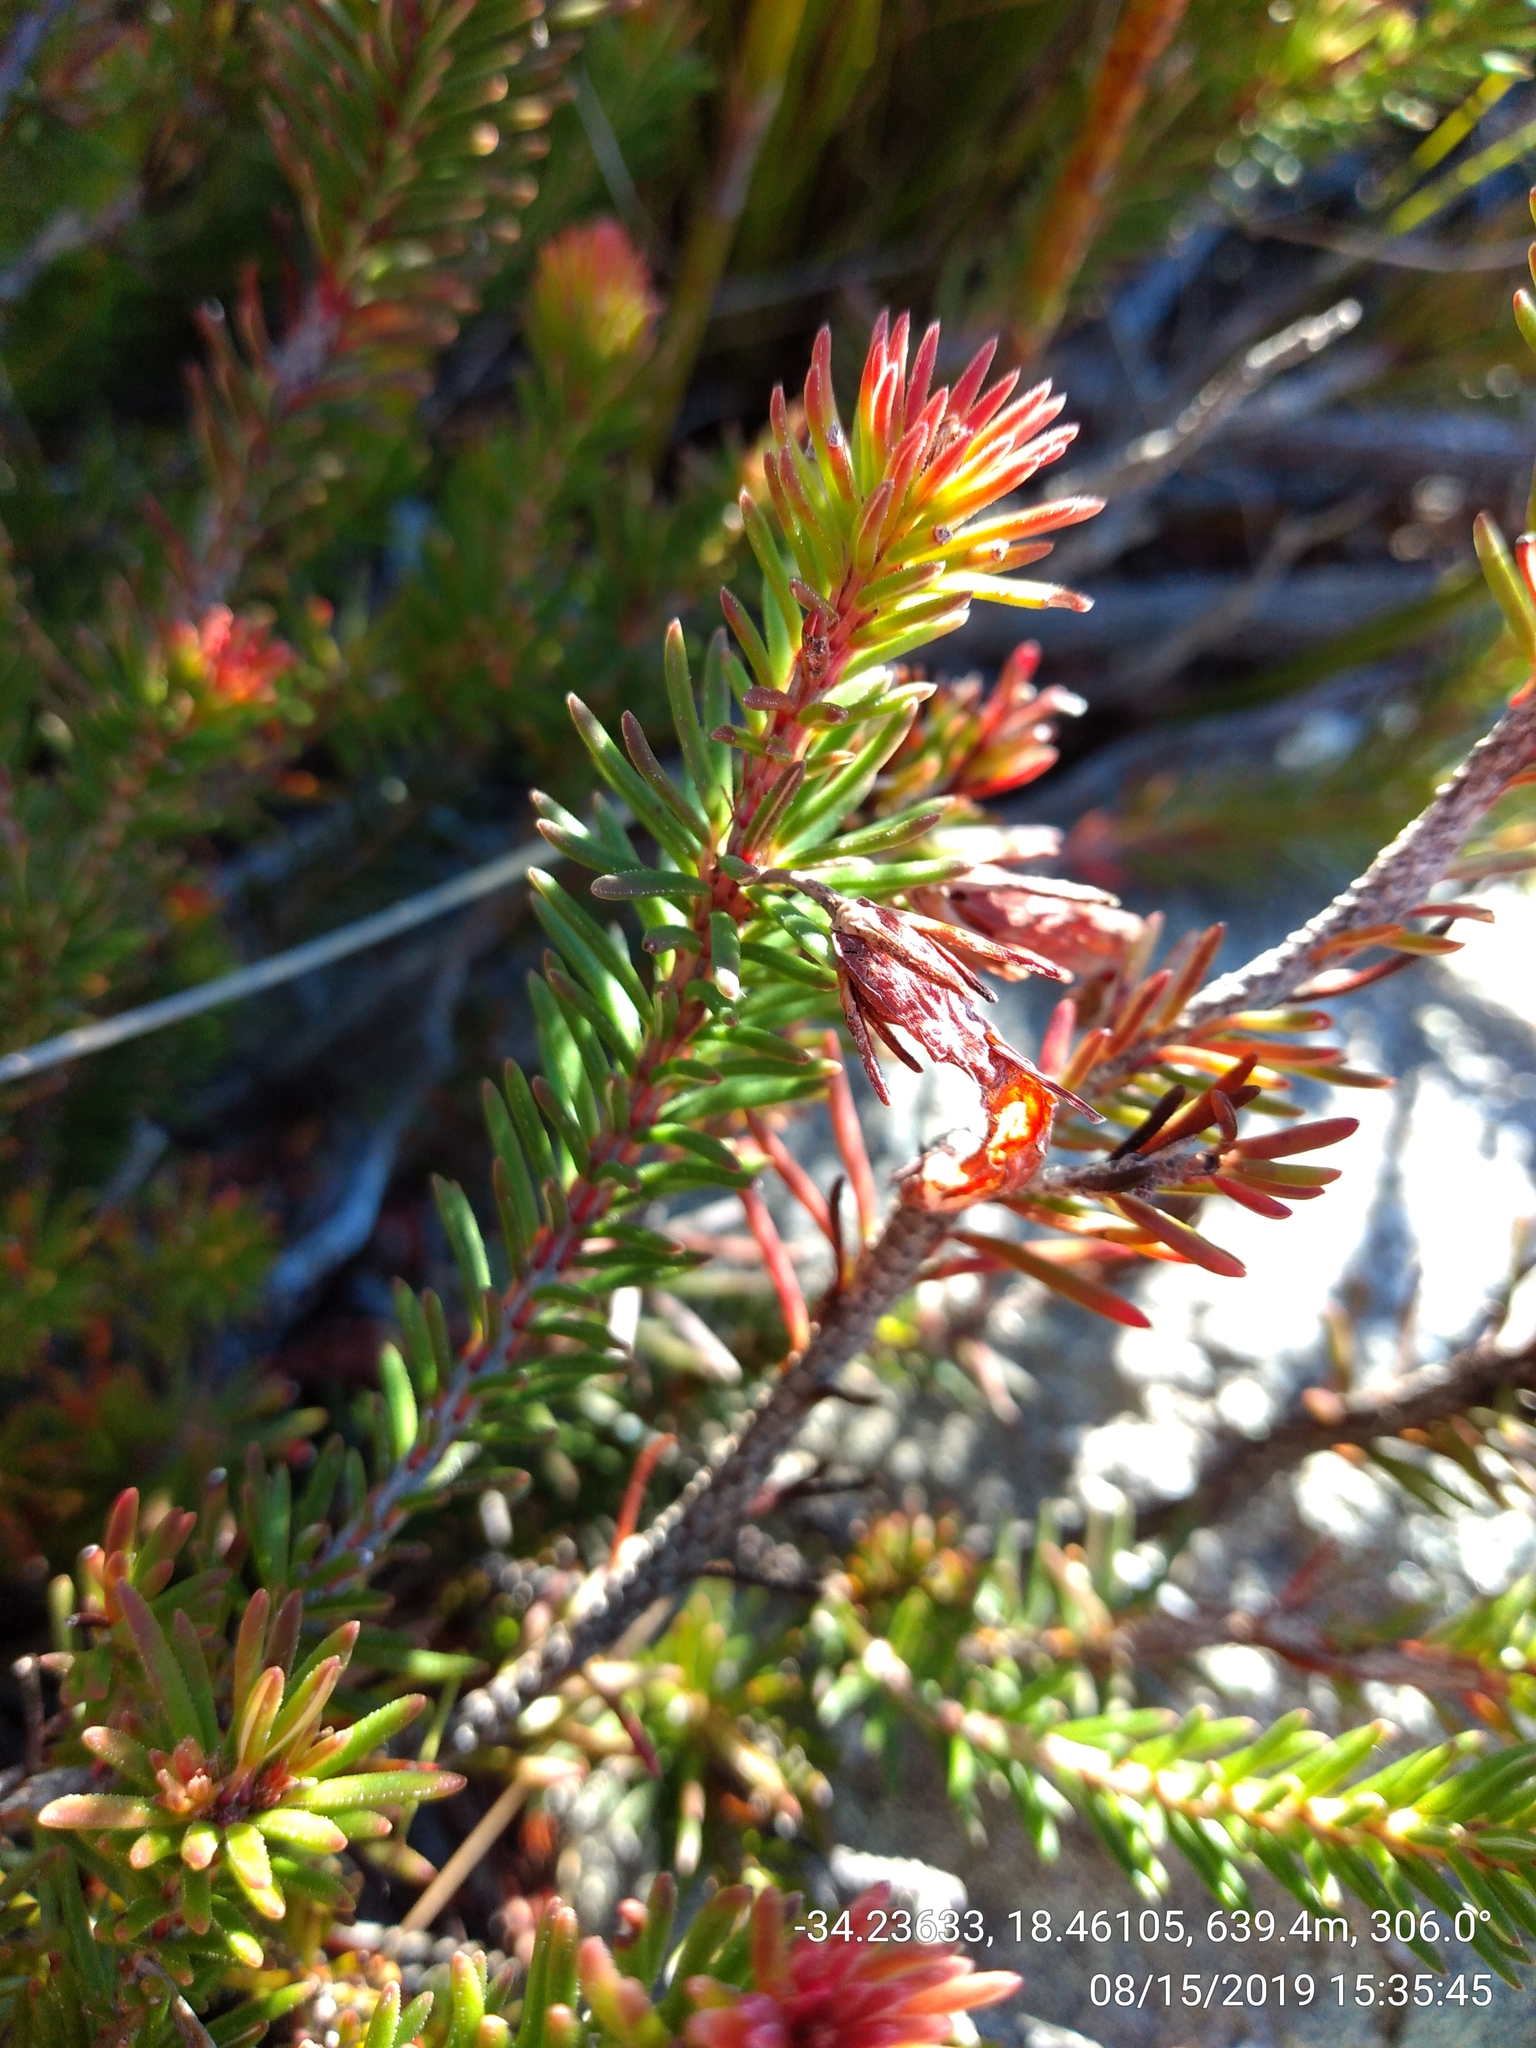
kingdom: Plantae
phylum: Tracheophyta
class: Magnoliopsida
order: Ericales
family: Ericaceae
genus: Erica
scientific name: Erica quadrisulcata
